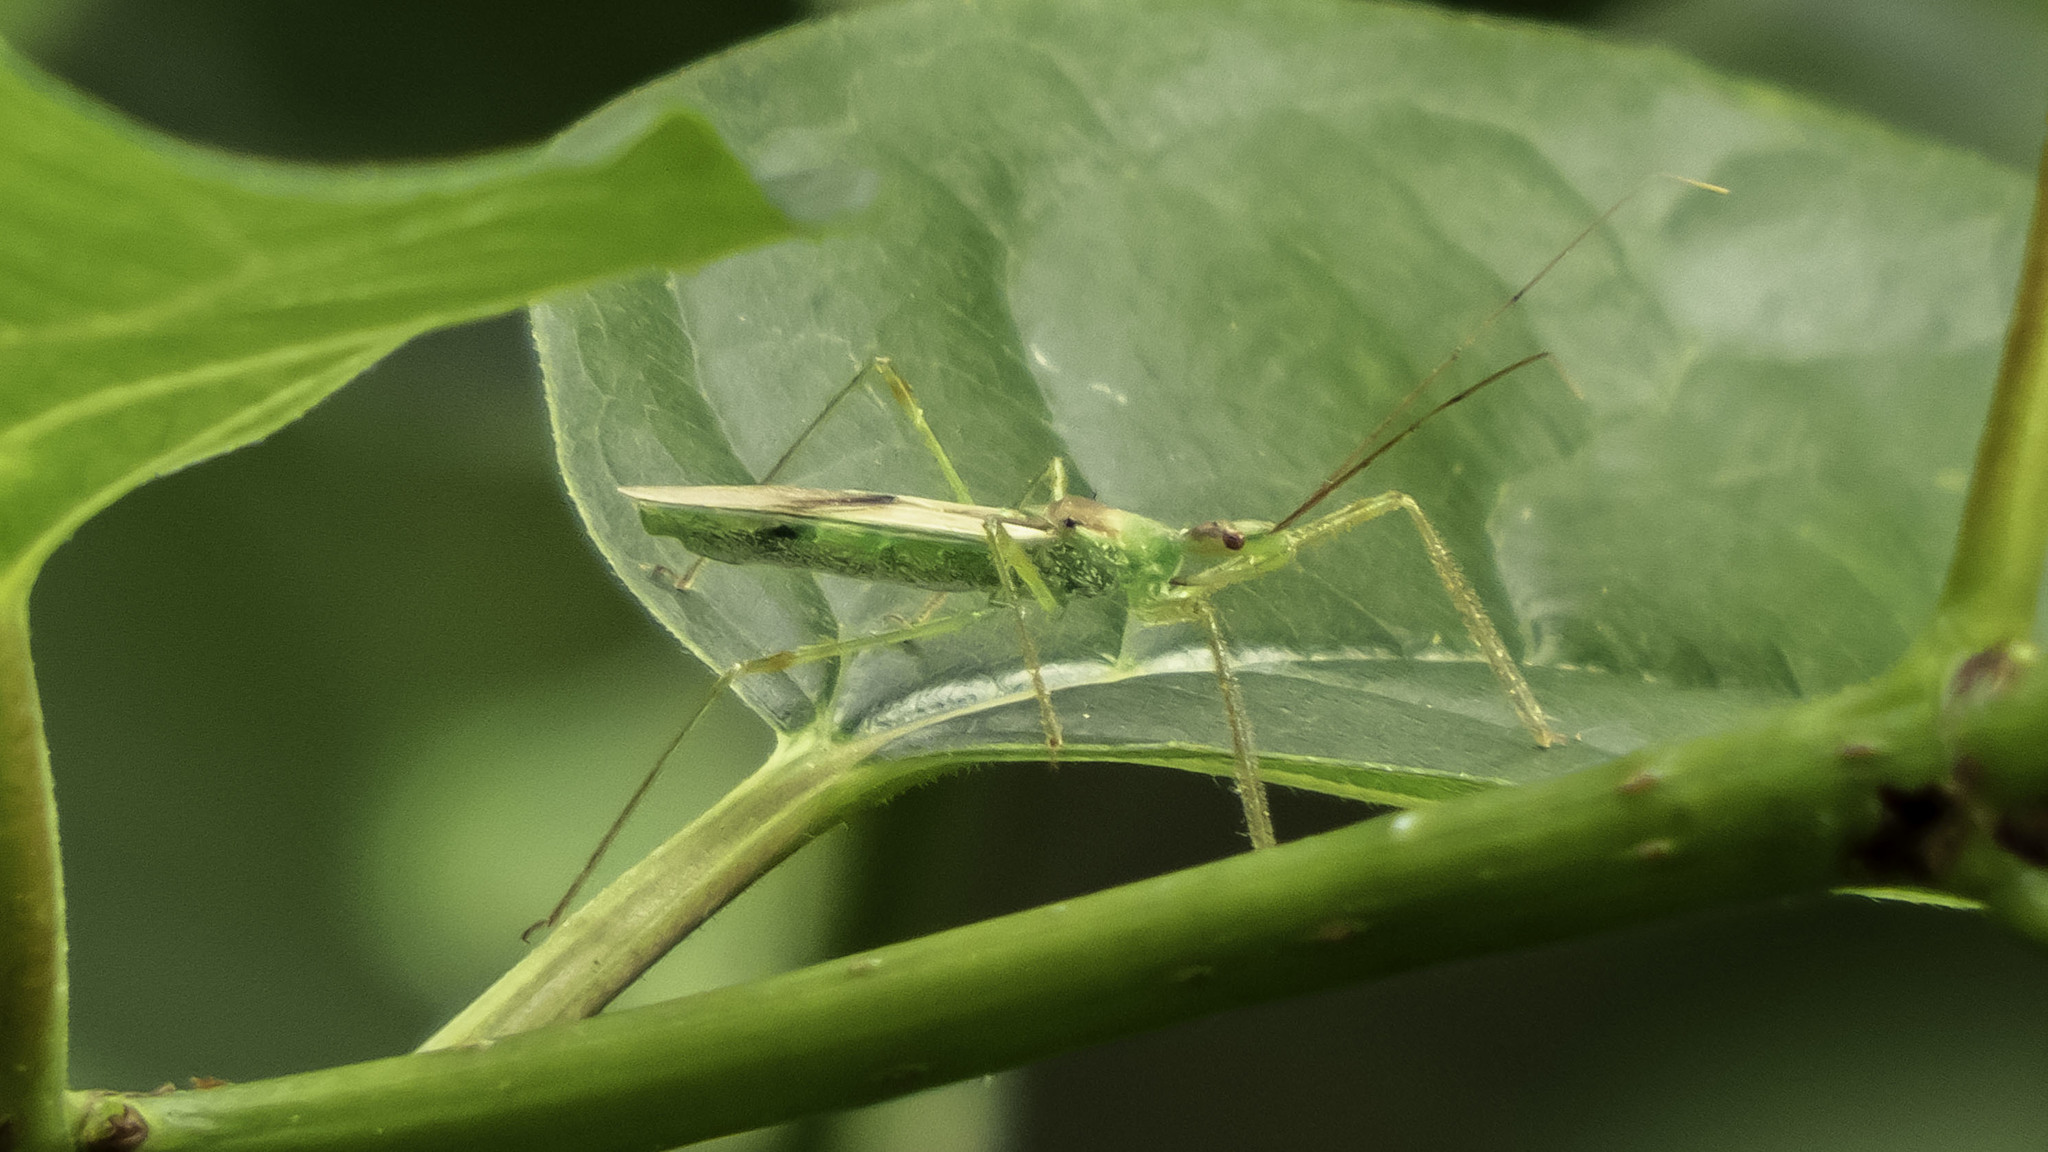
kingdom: Animalia
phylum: Arthropoda
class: Insecta
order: Hemiptera
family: Reduviidae
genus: Zelus
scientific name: Zelus luridus
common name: Pale green assassin bug
